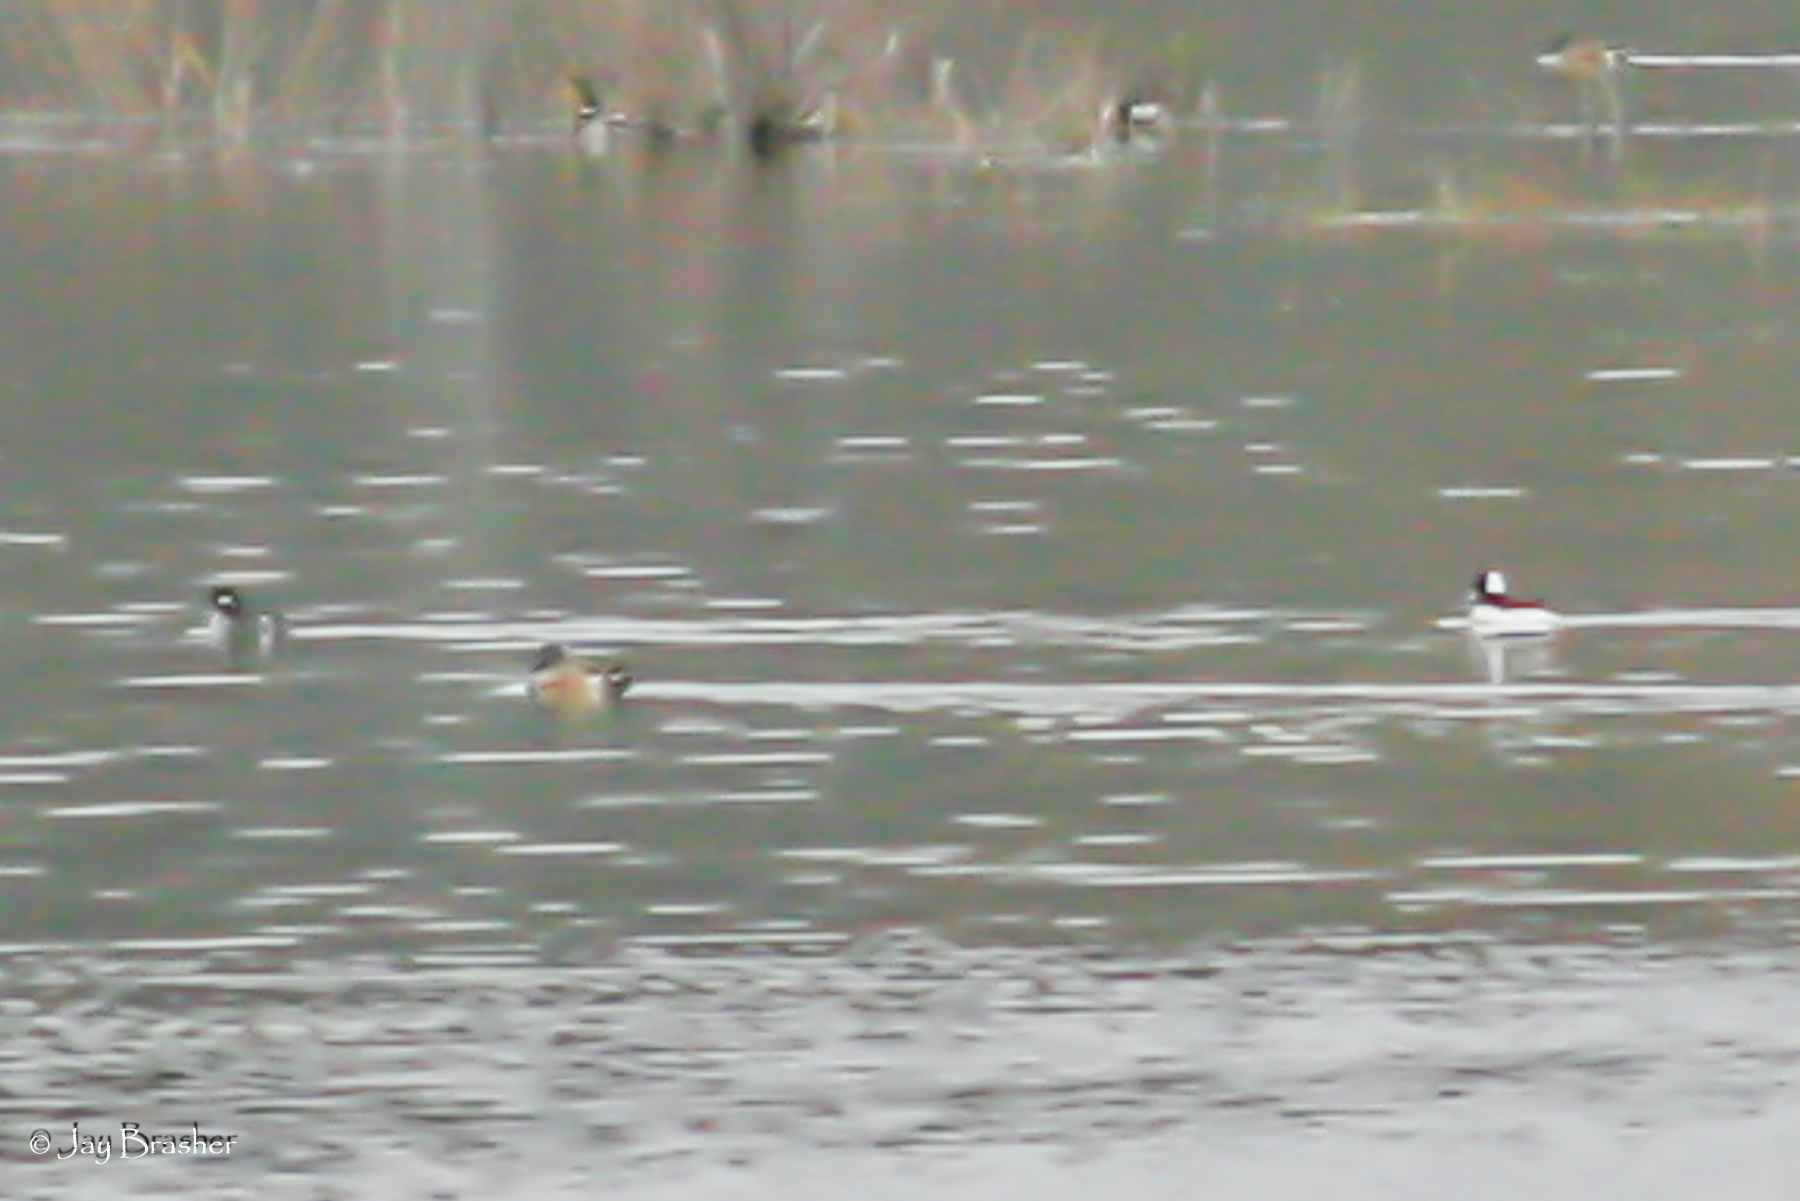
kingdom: Animalia
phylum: Chordata
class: Aves
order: Anseriformes
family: Anatidae
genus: Spatula
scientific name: Spatula clypeata
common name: Northern shoveler
